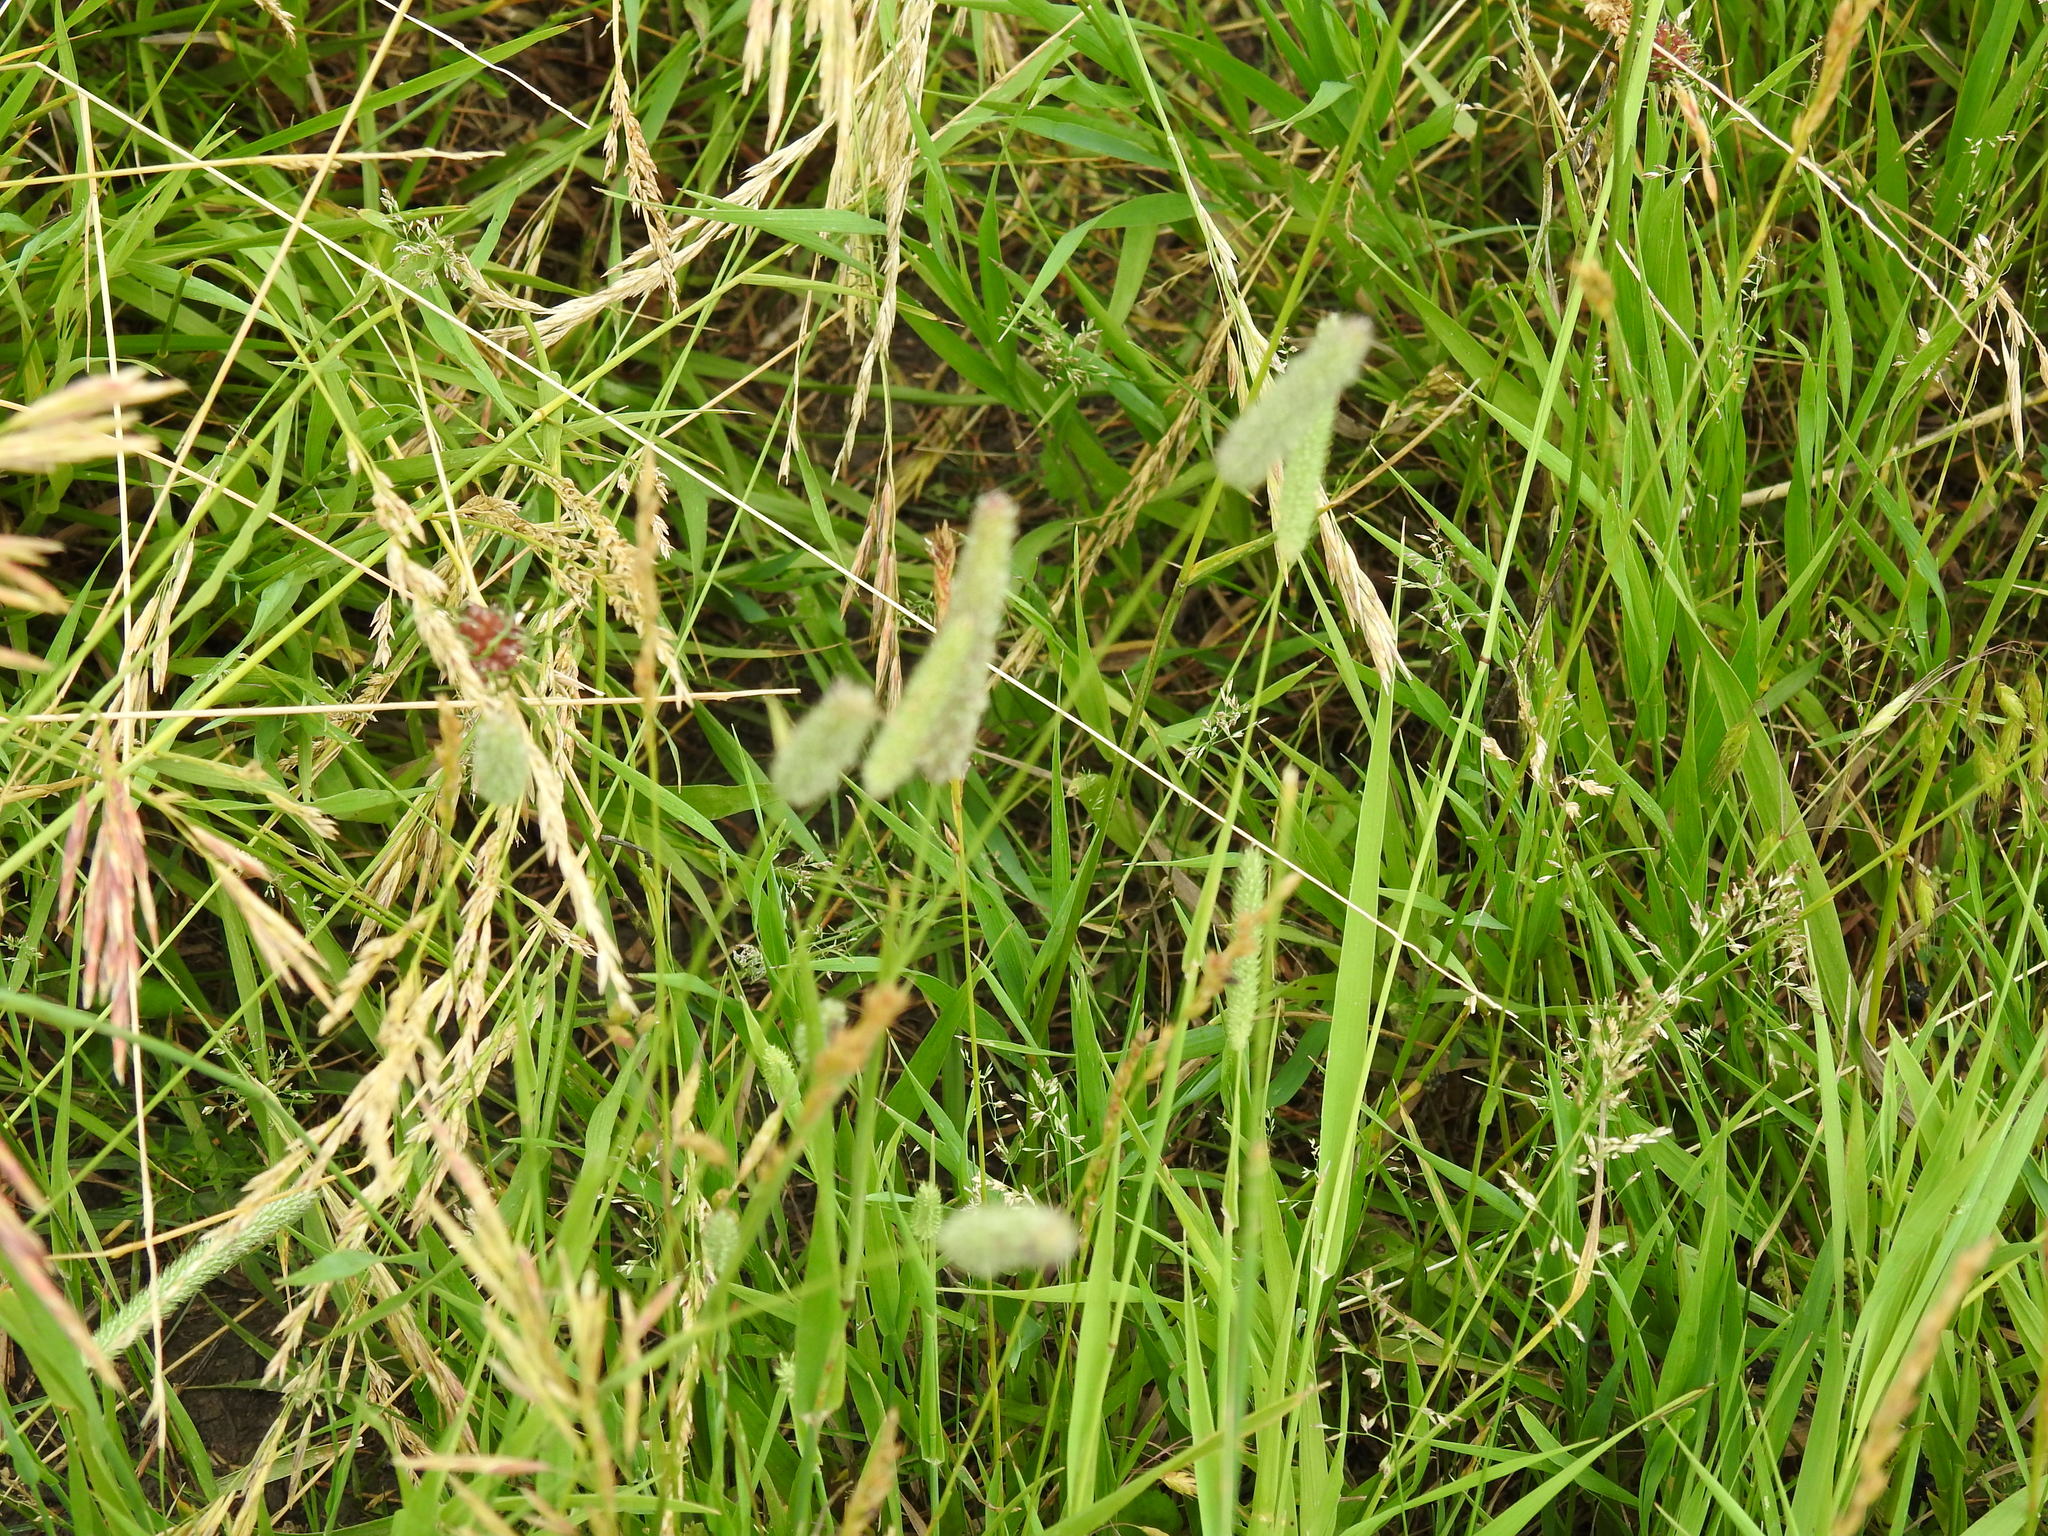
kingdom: Plantae
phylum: Tracheophyta
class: Liliopsida
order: Poales
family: Poaceae
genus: Phleum
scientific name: Phleum pratense
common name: Timothy grass
